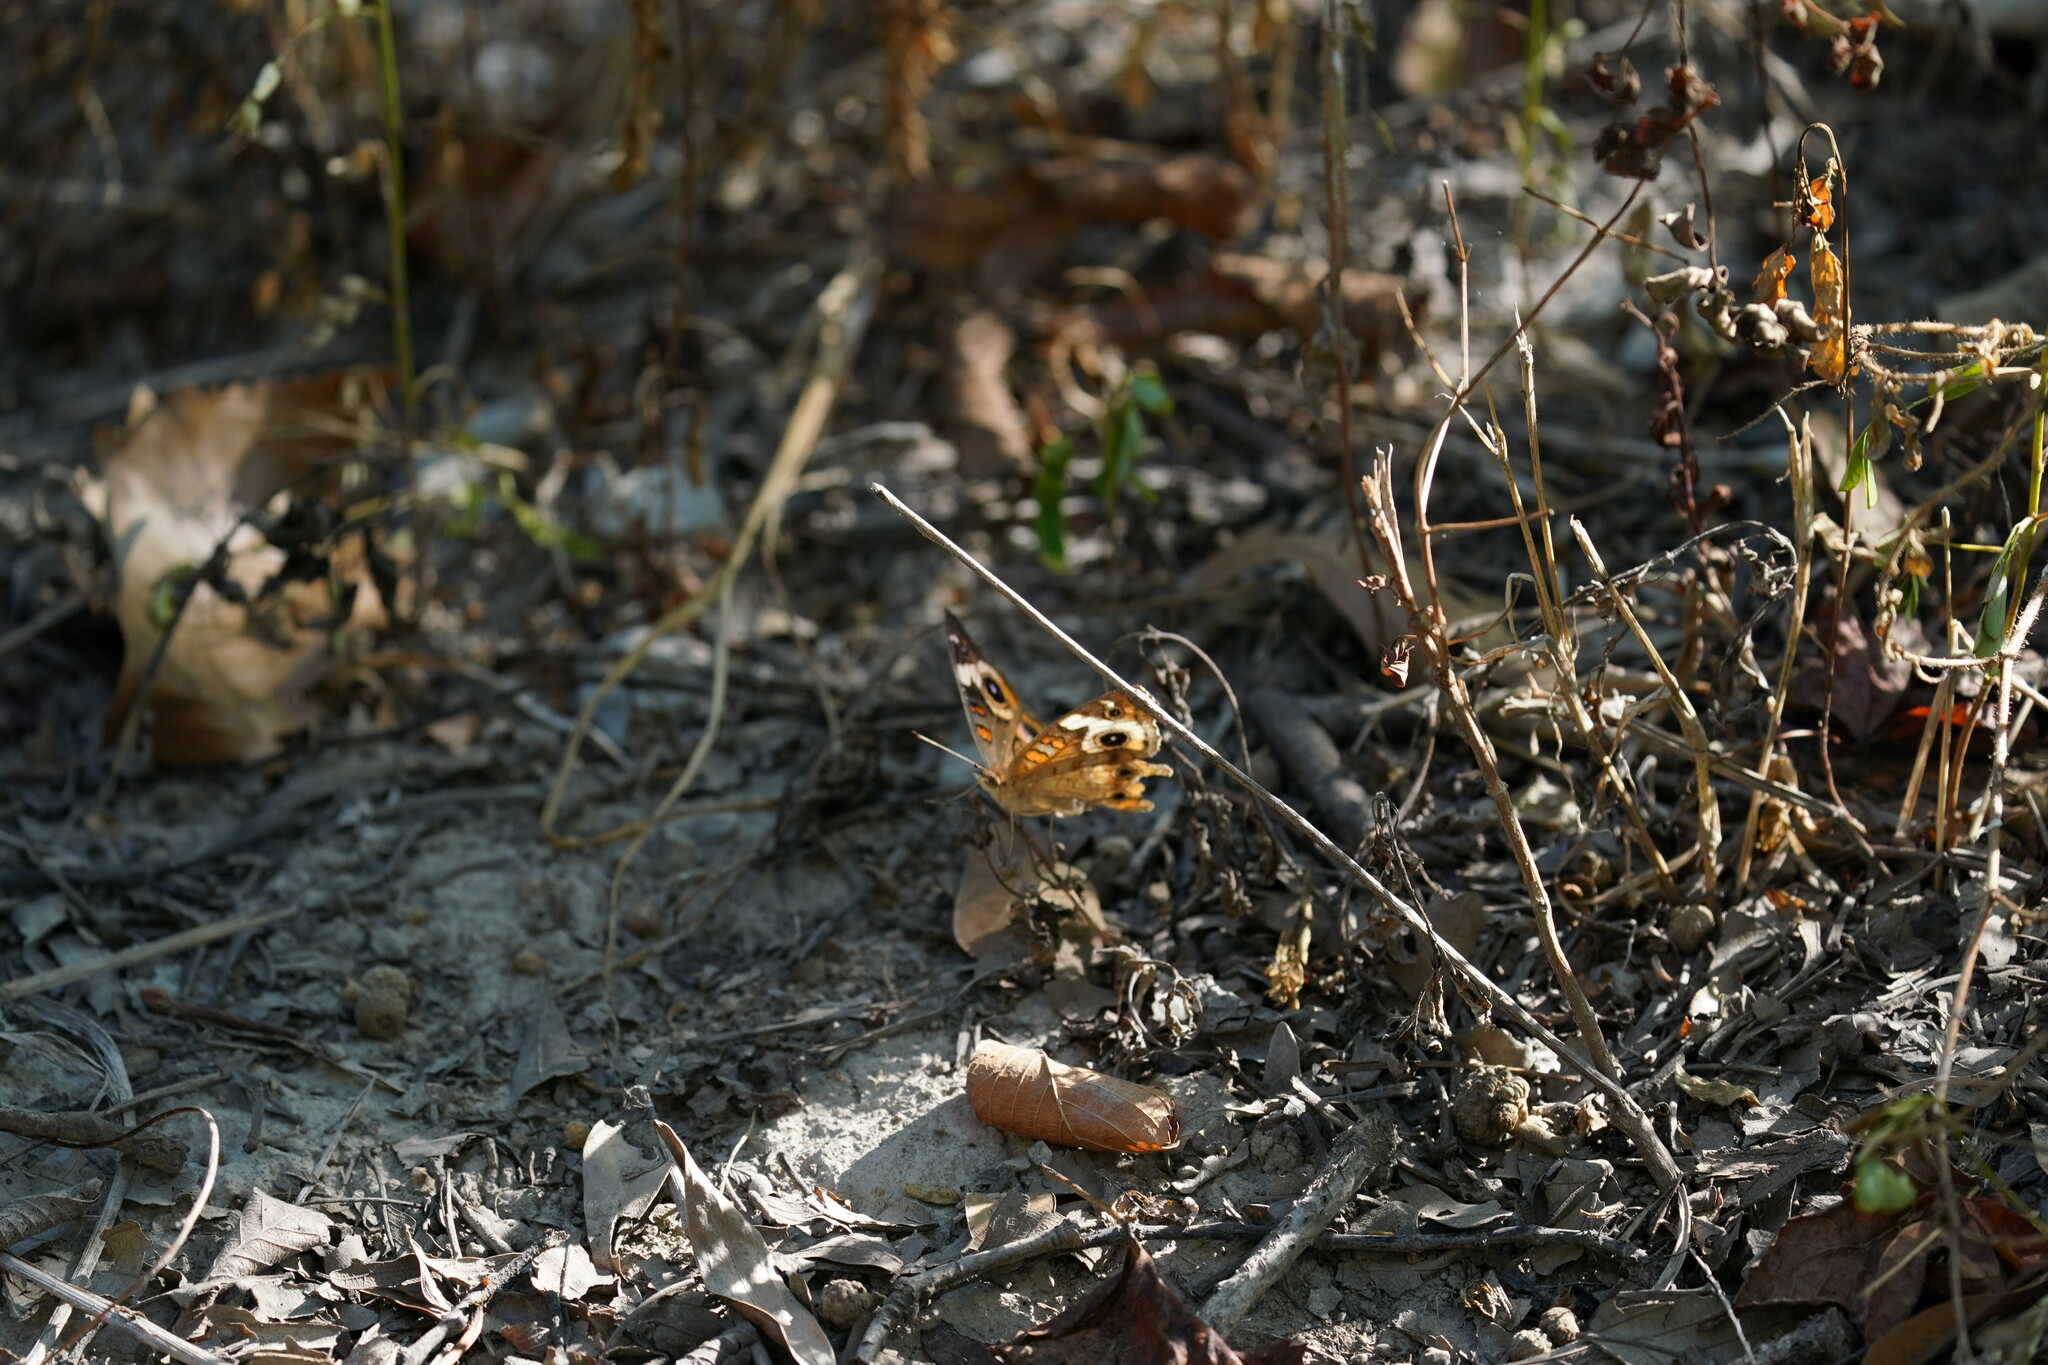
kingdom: Animalia
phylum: Arthropoda
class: Insecta
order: Lepidoptera
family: Nymphalidae
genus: Junonia
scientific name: Junonia coenia
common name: Common buckeye
